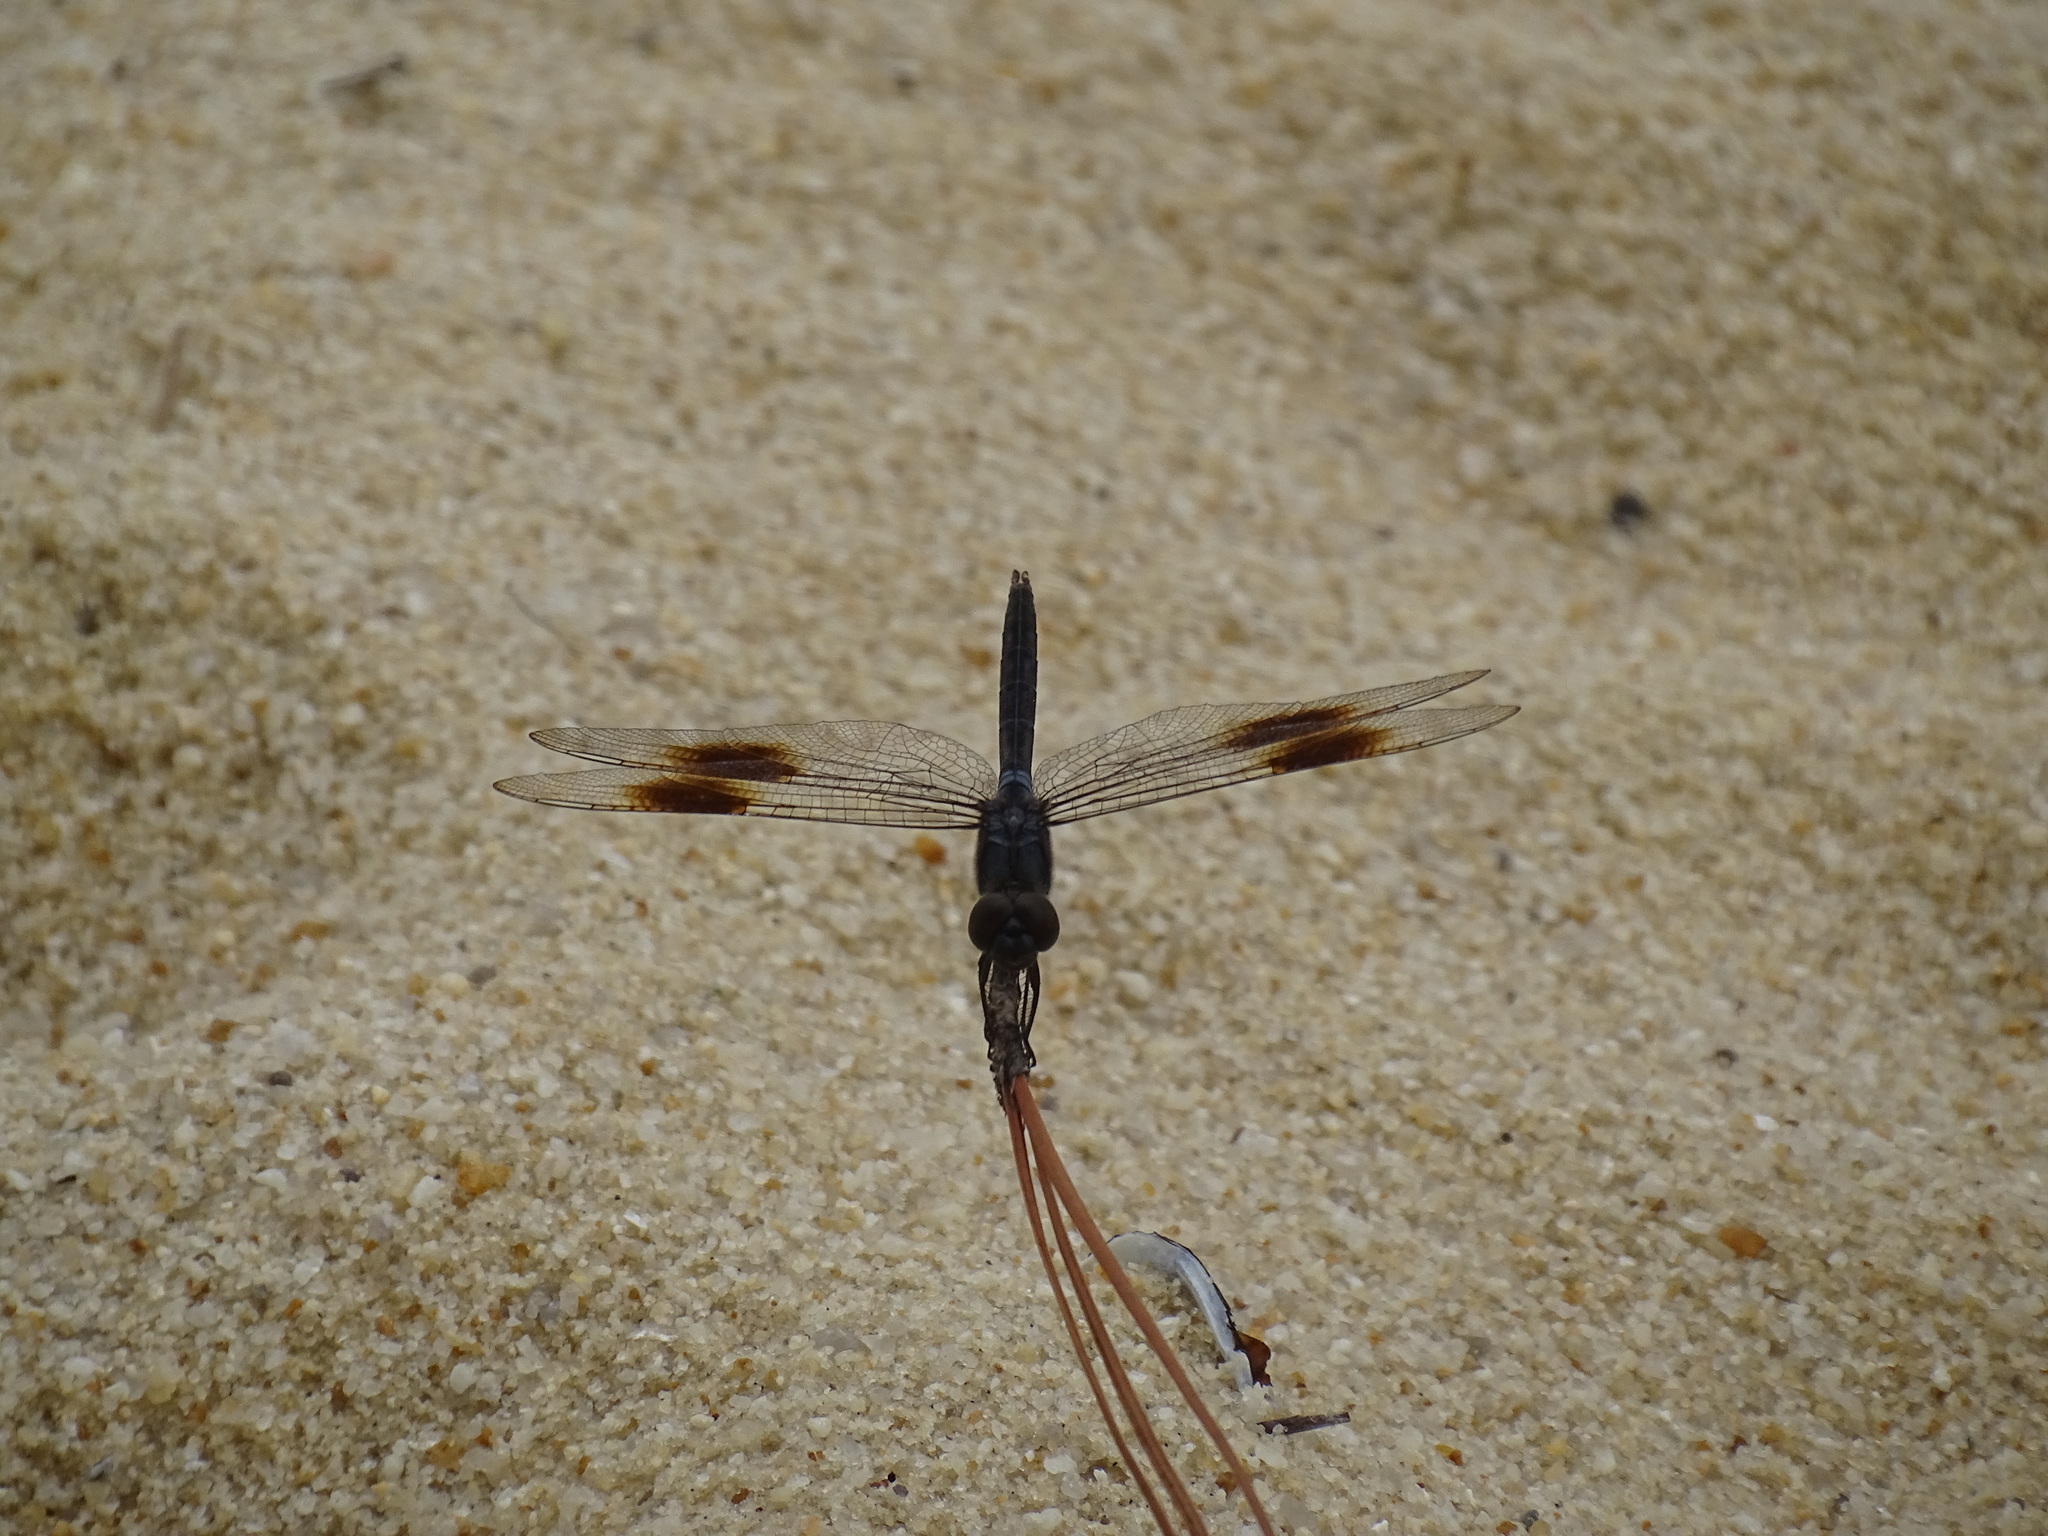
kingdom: Animalia
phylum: Arthropoda
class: Insecta
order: Odonata
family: Libellulidae
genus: Brachymesia
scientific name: Brachymesia gravida
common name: Four-spotted pennant
